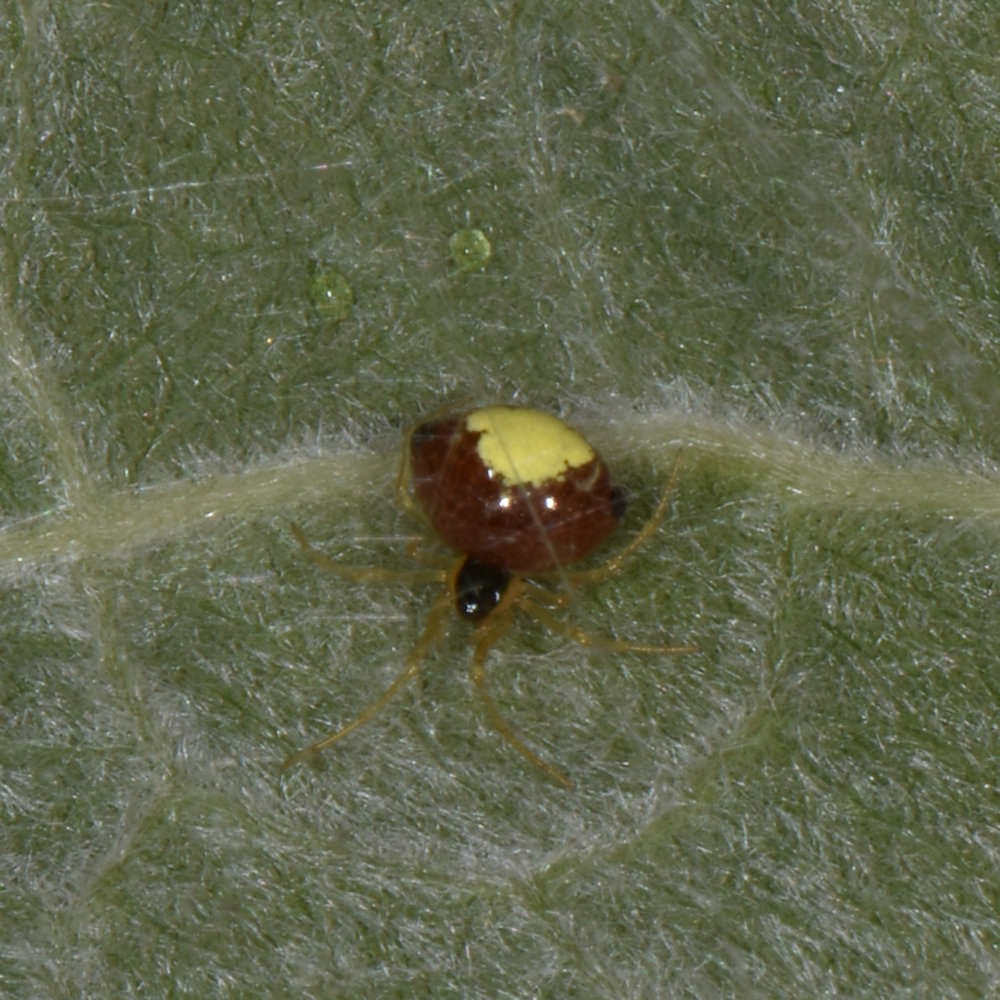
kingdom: Animalia
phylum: Arthropoda
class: Arachnida
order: Araneae
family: Theridiidae
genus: Theridula
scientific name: Theridula emertoni
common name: Emerton's bitubercled cobweaver
